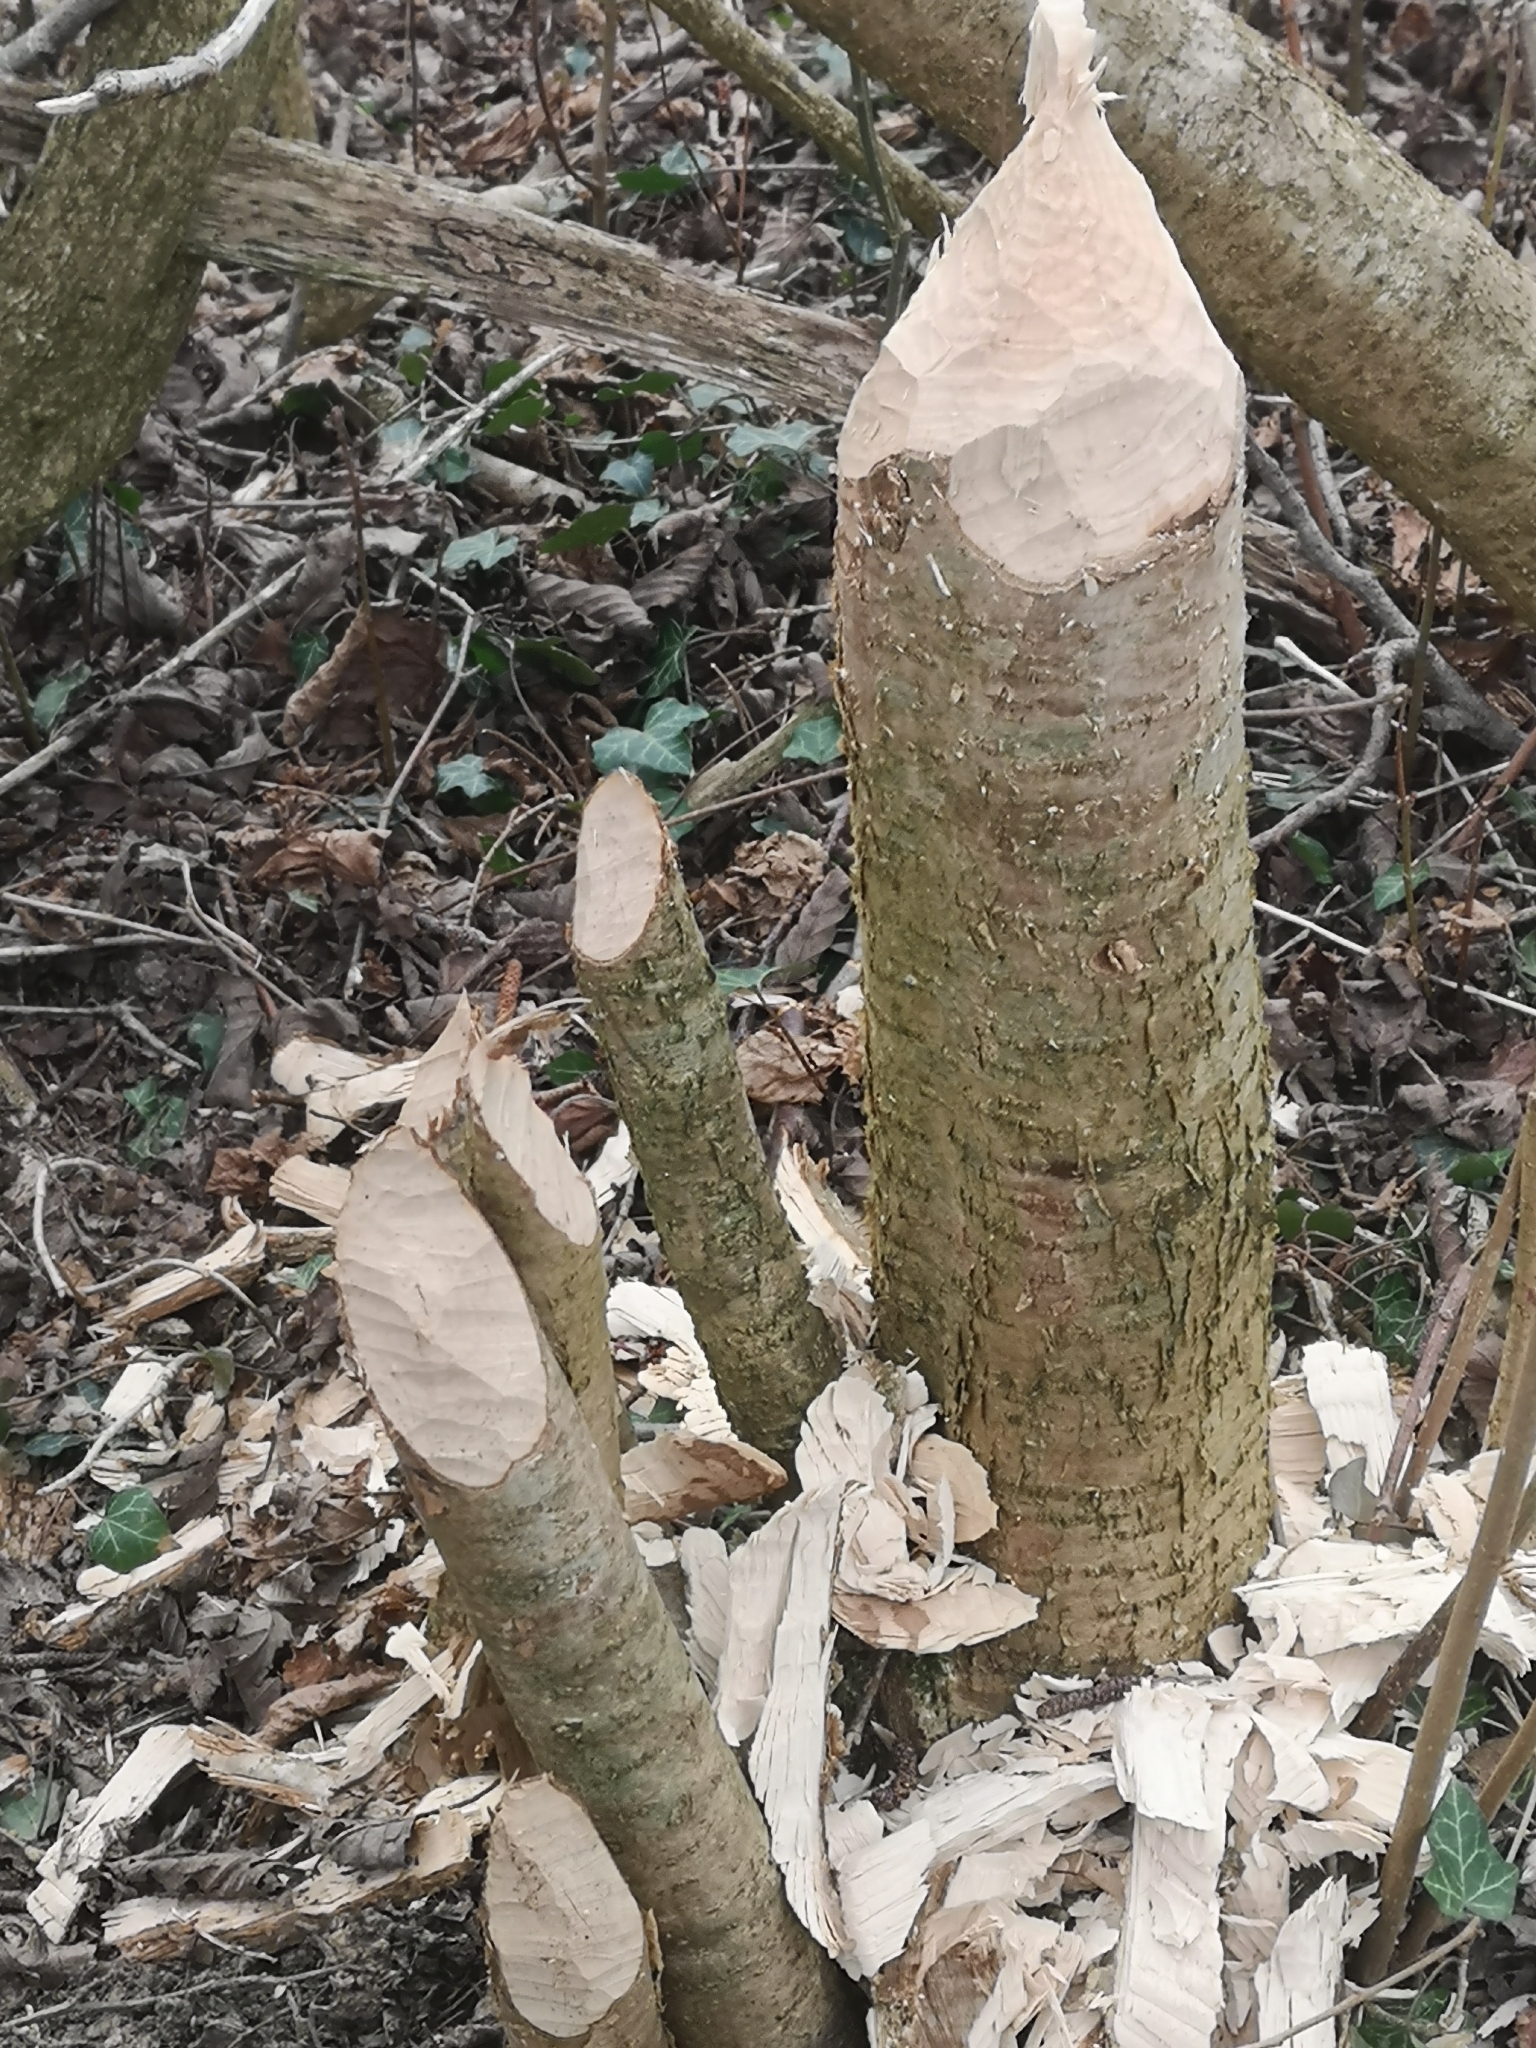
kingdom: Animalia
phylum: Chordata
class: Mammalia
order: Rodentia
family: Castoridae
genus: Castor
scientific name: Castor fiber
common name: Eurasian beaver
